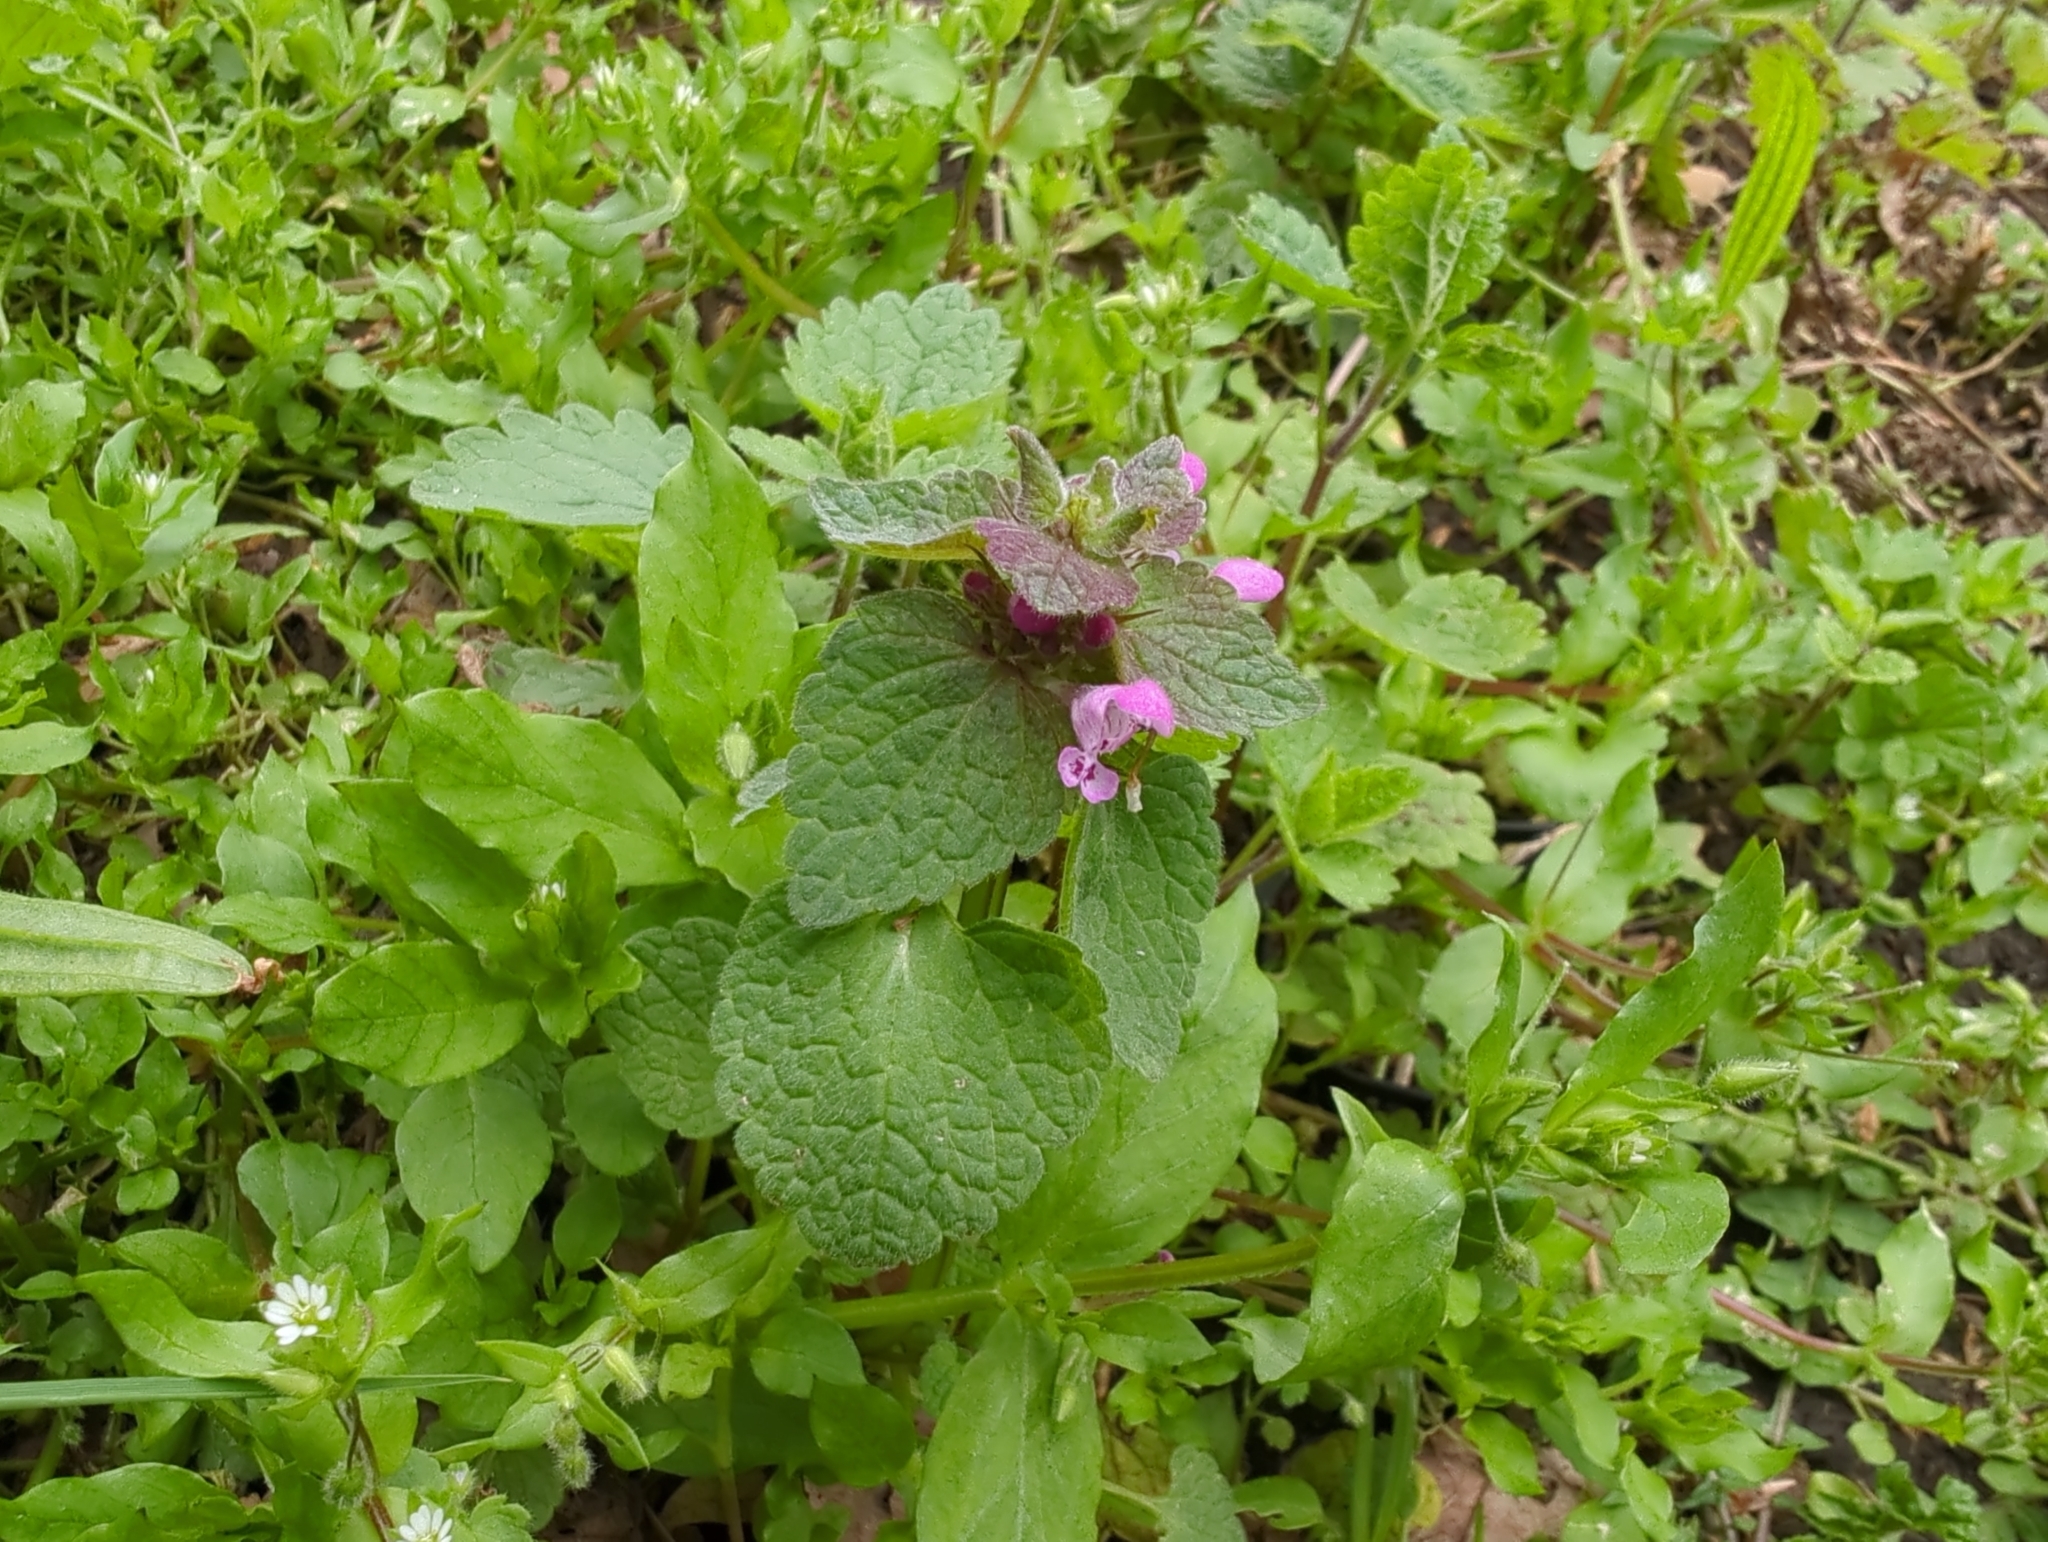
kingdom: Plantae
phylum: Tracheophyta
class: Magnoliopsida
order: Lamiales
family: Lamiaceae
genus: Lamium
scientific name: Lamium purpureum
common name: Red dead-nettle
